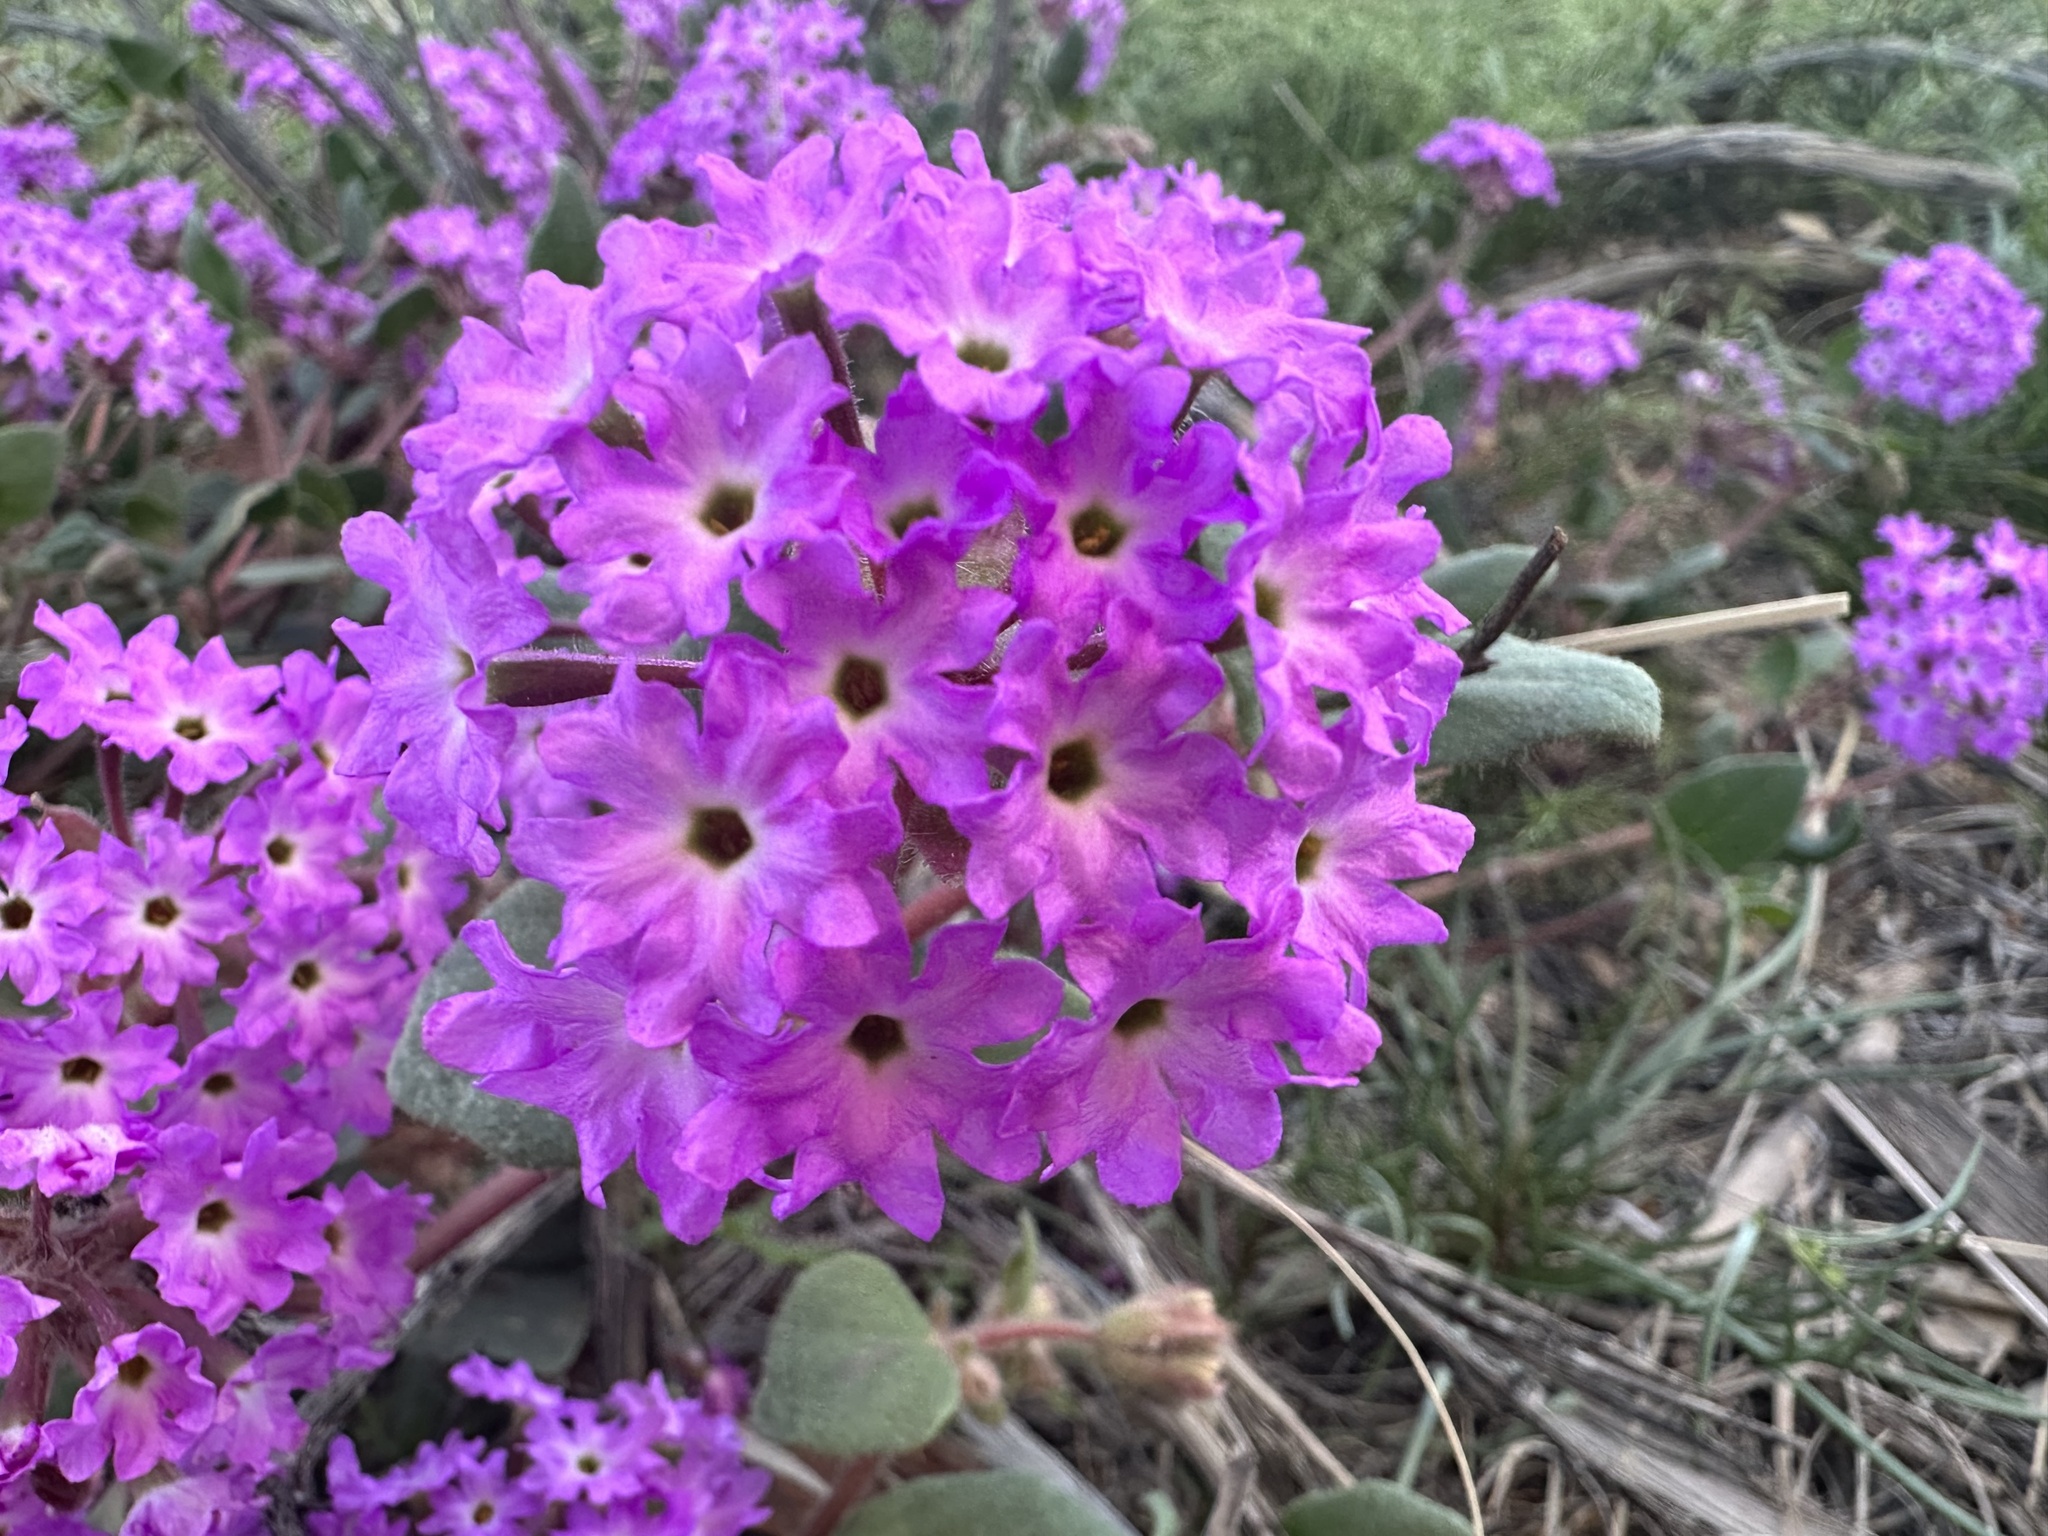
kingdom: Plantae
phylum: Tracheophyta
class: Magnoliopsida
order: Caryophyllales
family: Nyctaginaceae
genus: Abronia
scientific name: Abronia villosa
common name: Desert sand-verbena
